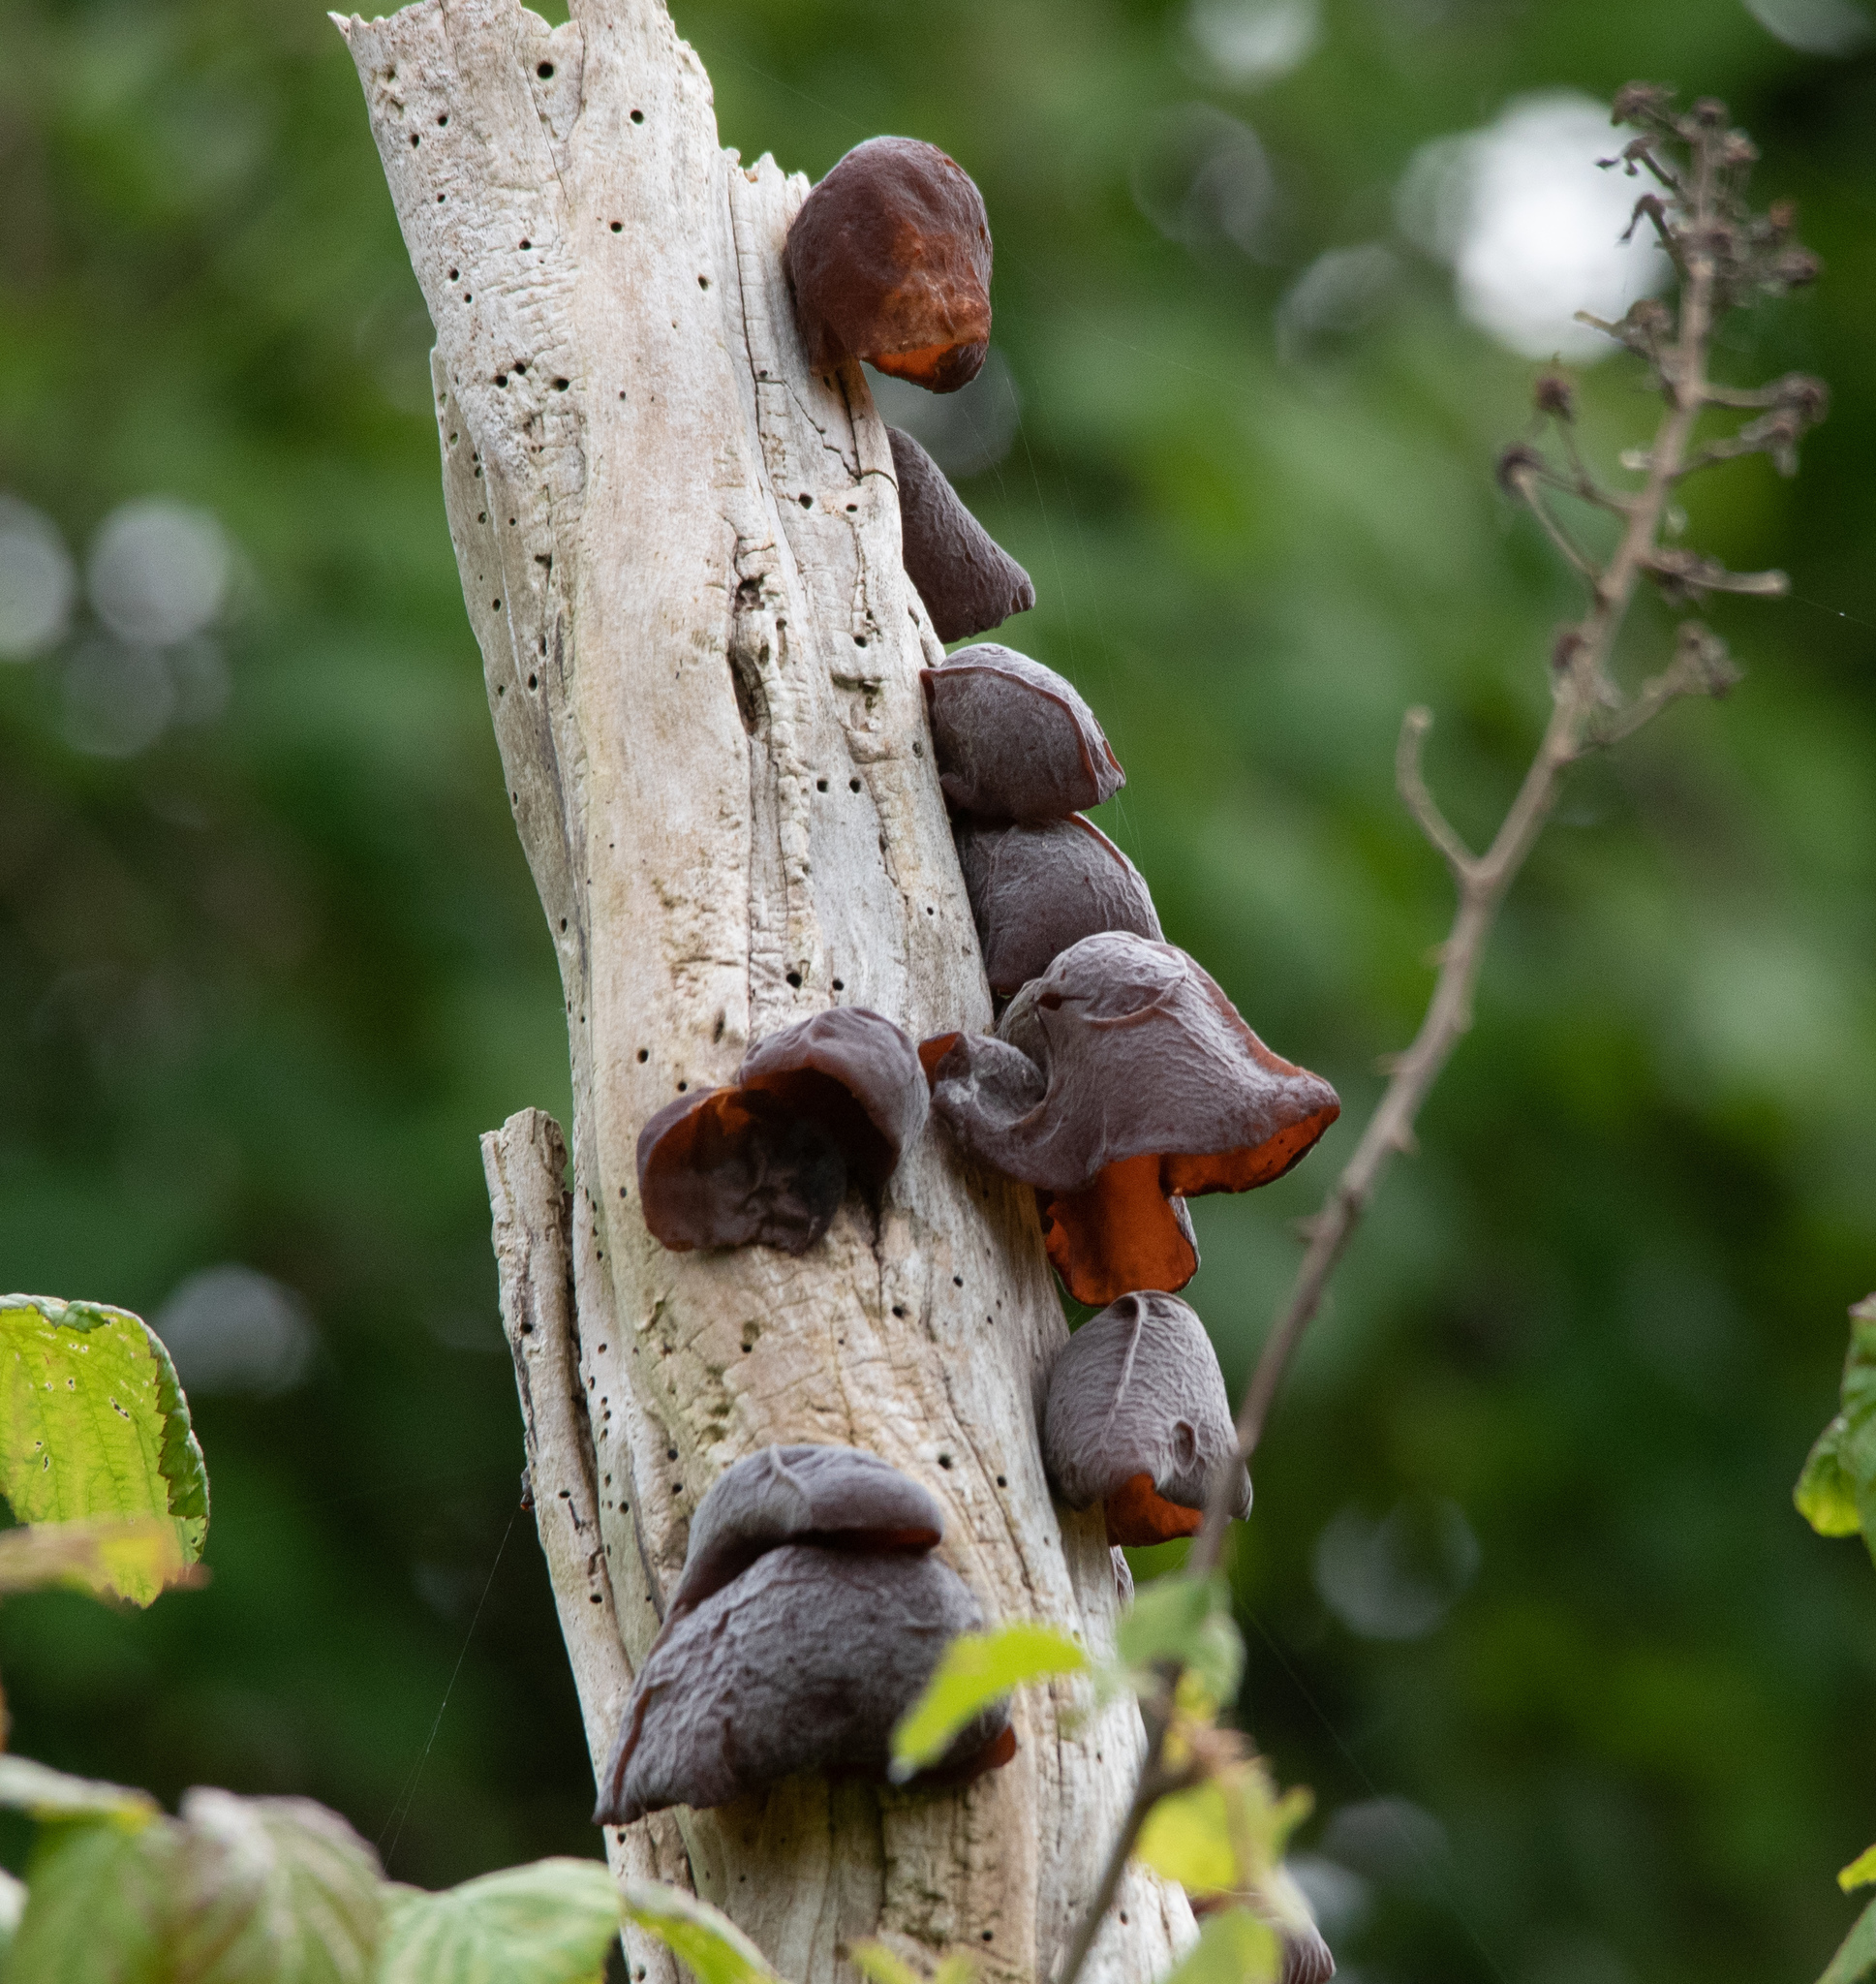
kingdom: Fungi
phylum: Basidiomycota
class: Agaricomycetes
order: Auriculariales
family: Auriculariaceae
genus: Auricularia
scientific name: Auricularia auricula-judae
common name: Jelly ear
